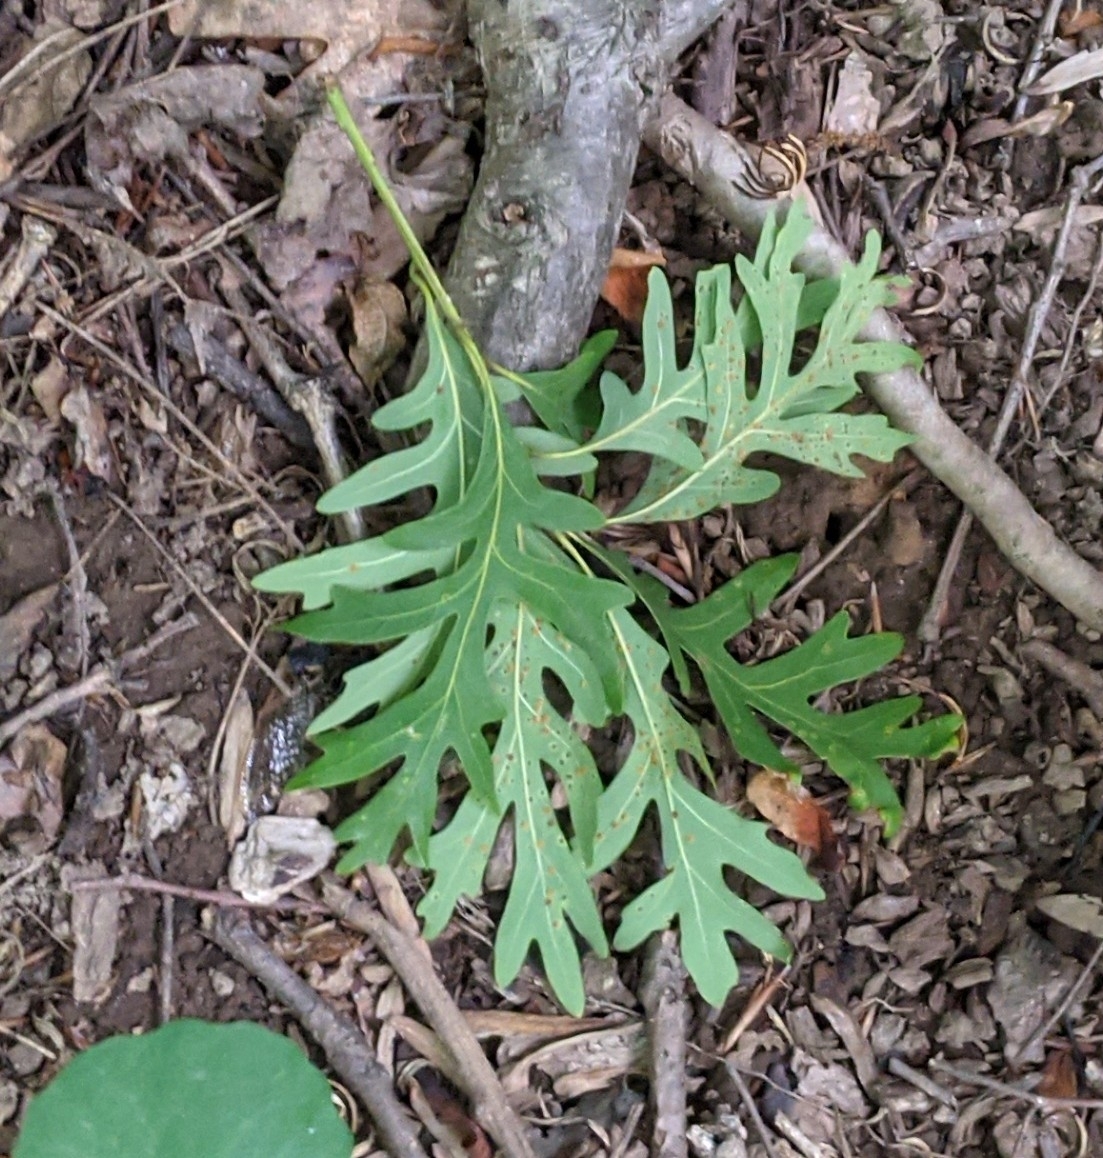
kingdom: Plantae
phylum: Tracheophyta
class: Magnoliopsida
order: Fagales
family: Fagaceae
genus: Quercus
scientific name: Quercus alba
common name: White oak
